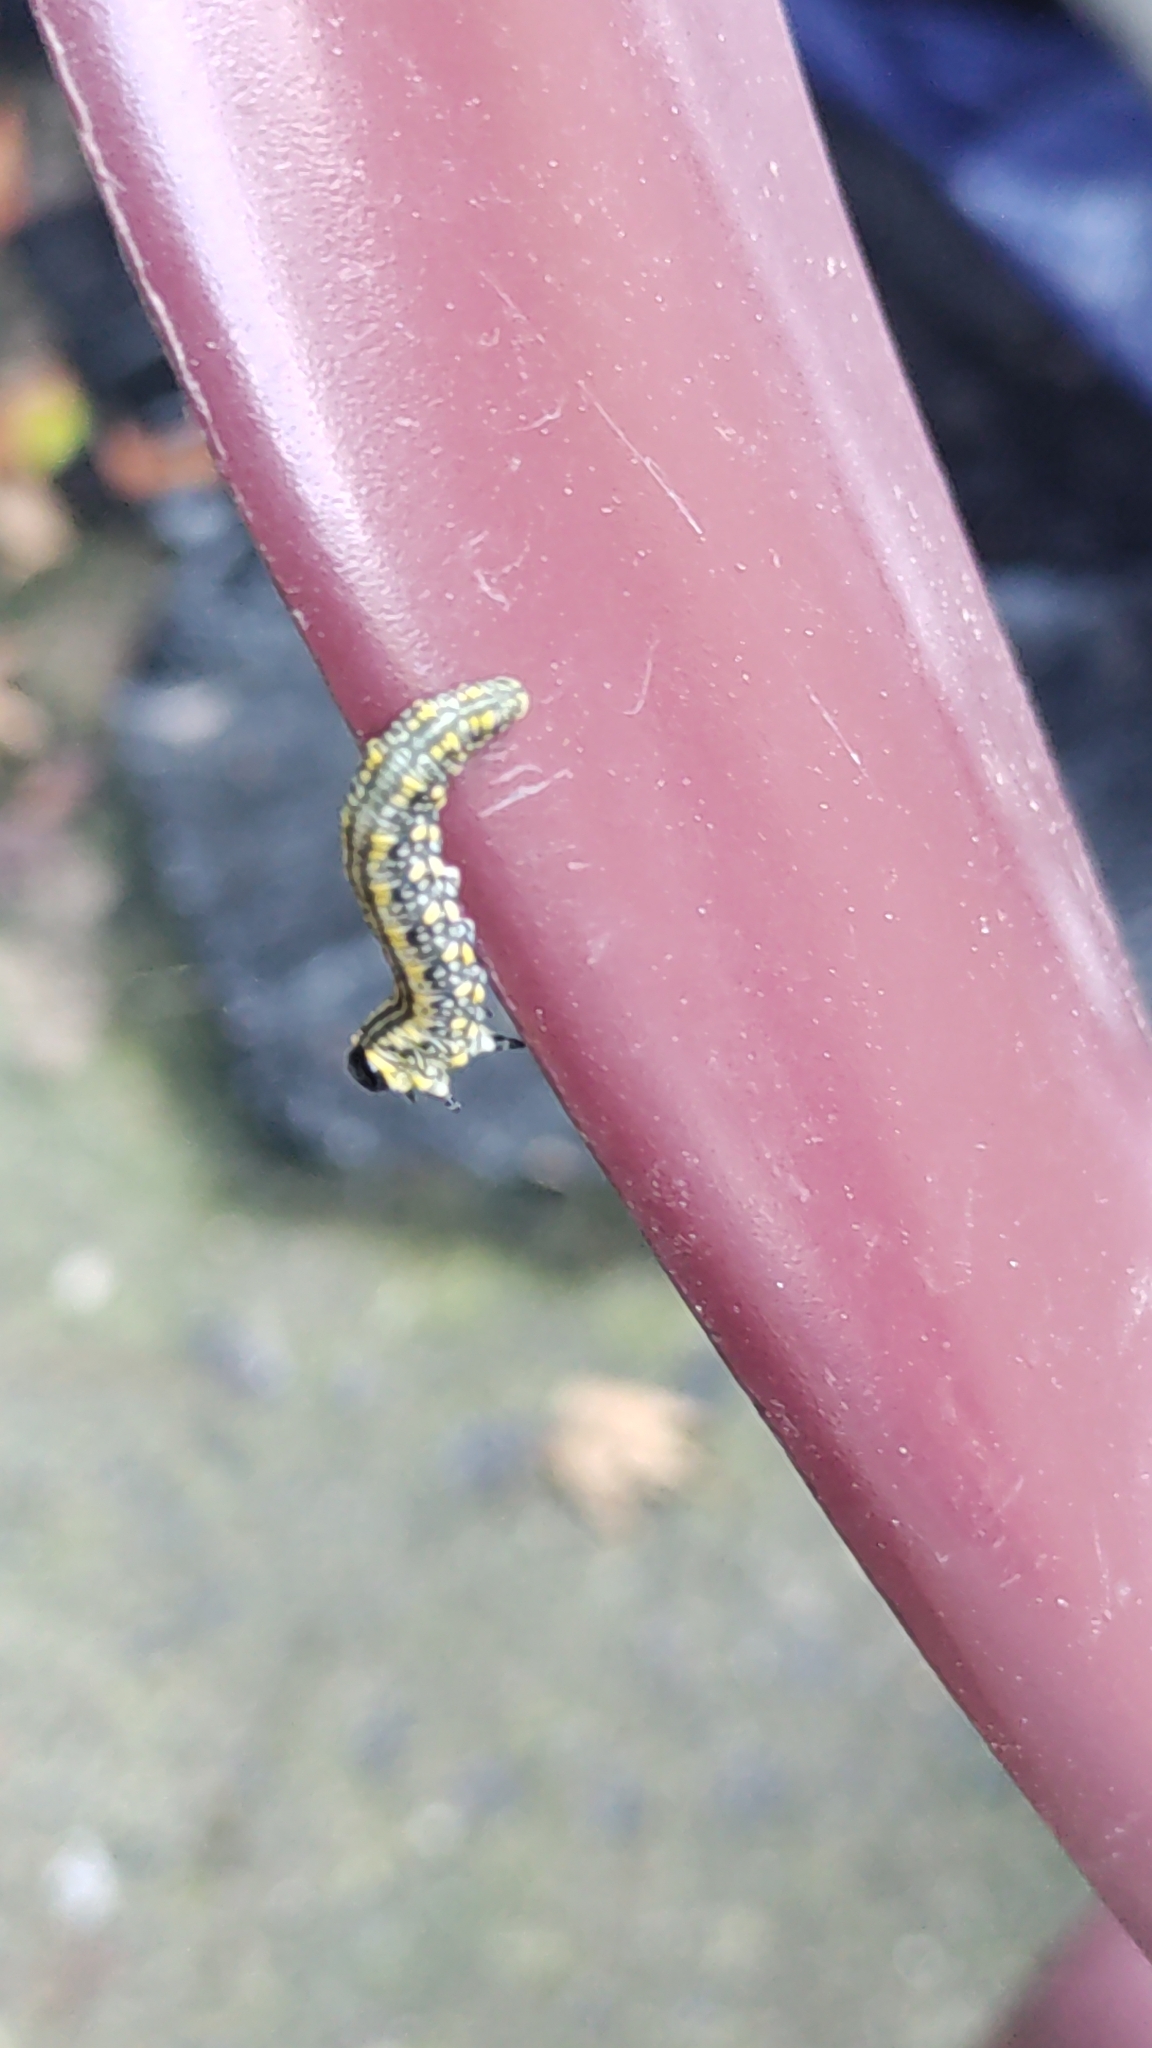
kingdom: Animalia
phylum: Arthropoda
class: Insecta
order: Hymenoptera
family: Diprionidae
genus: Diprion
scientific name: Diprion similis
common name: Pine sawfly
